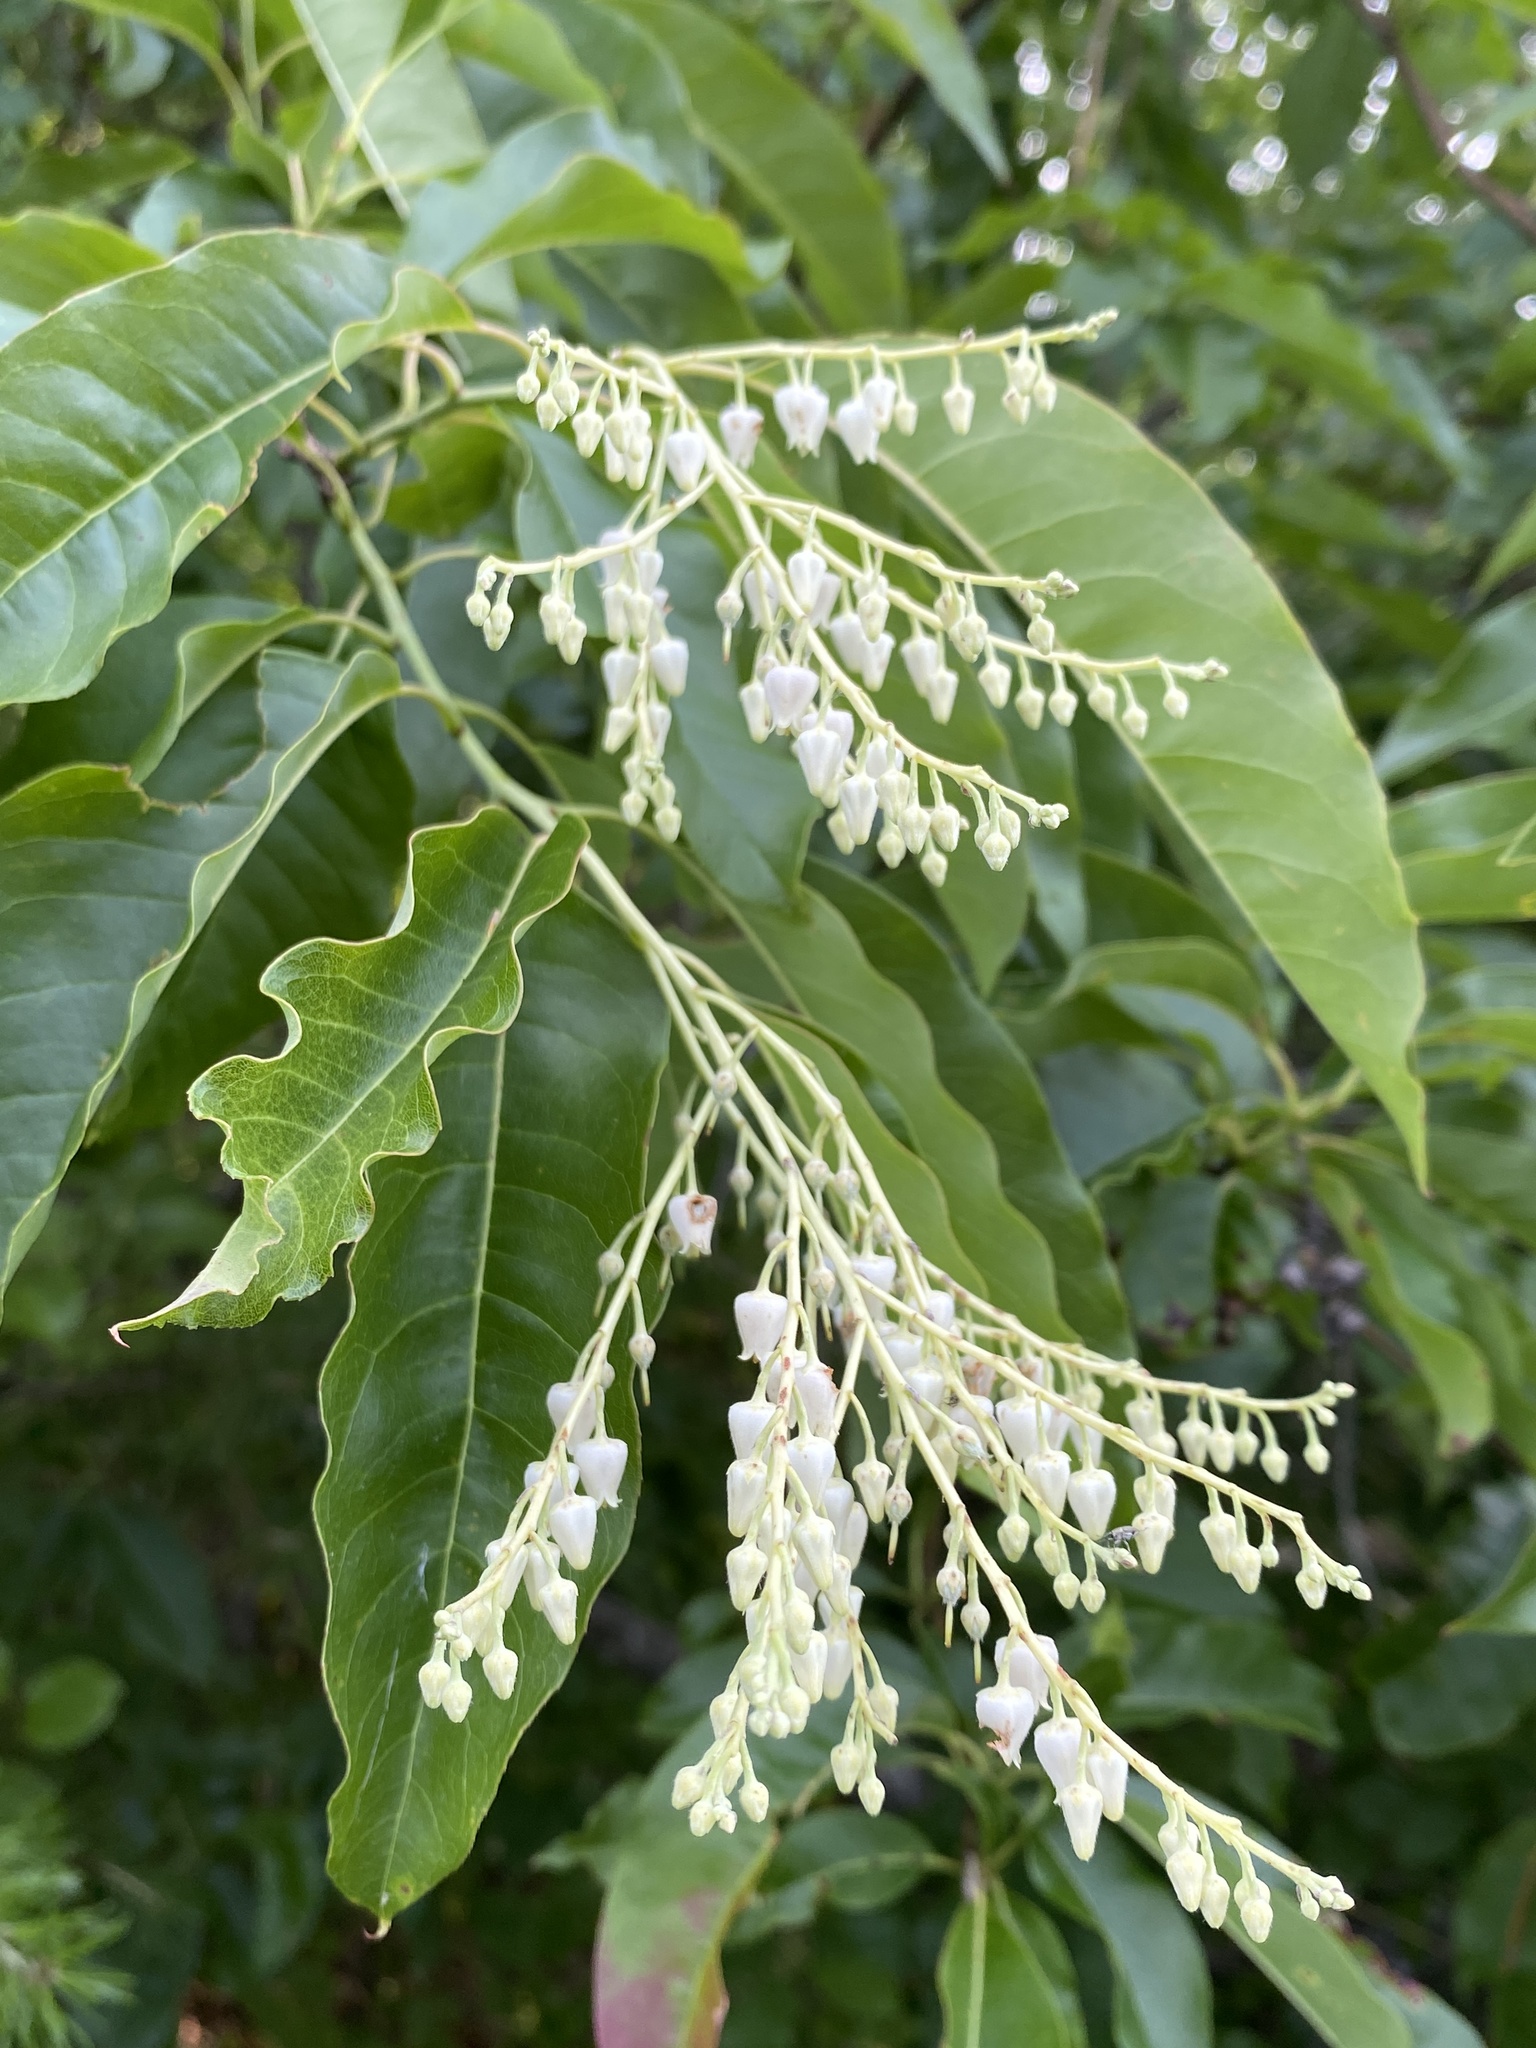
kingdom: Plantae
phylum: Tracheophyta
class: Magnoliopsida
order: Ericales
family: Ericaceae
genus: Oxydendrum
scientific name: Oxydendrum arboreum
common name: Sourwood
